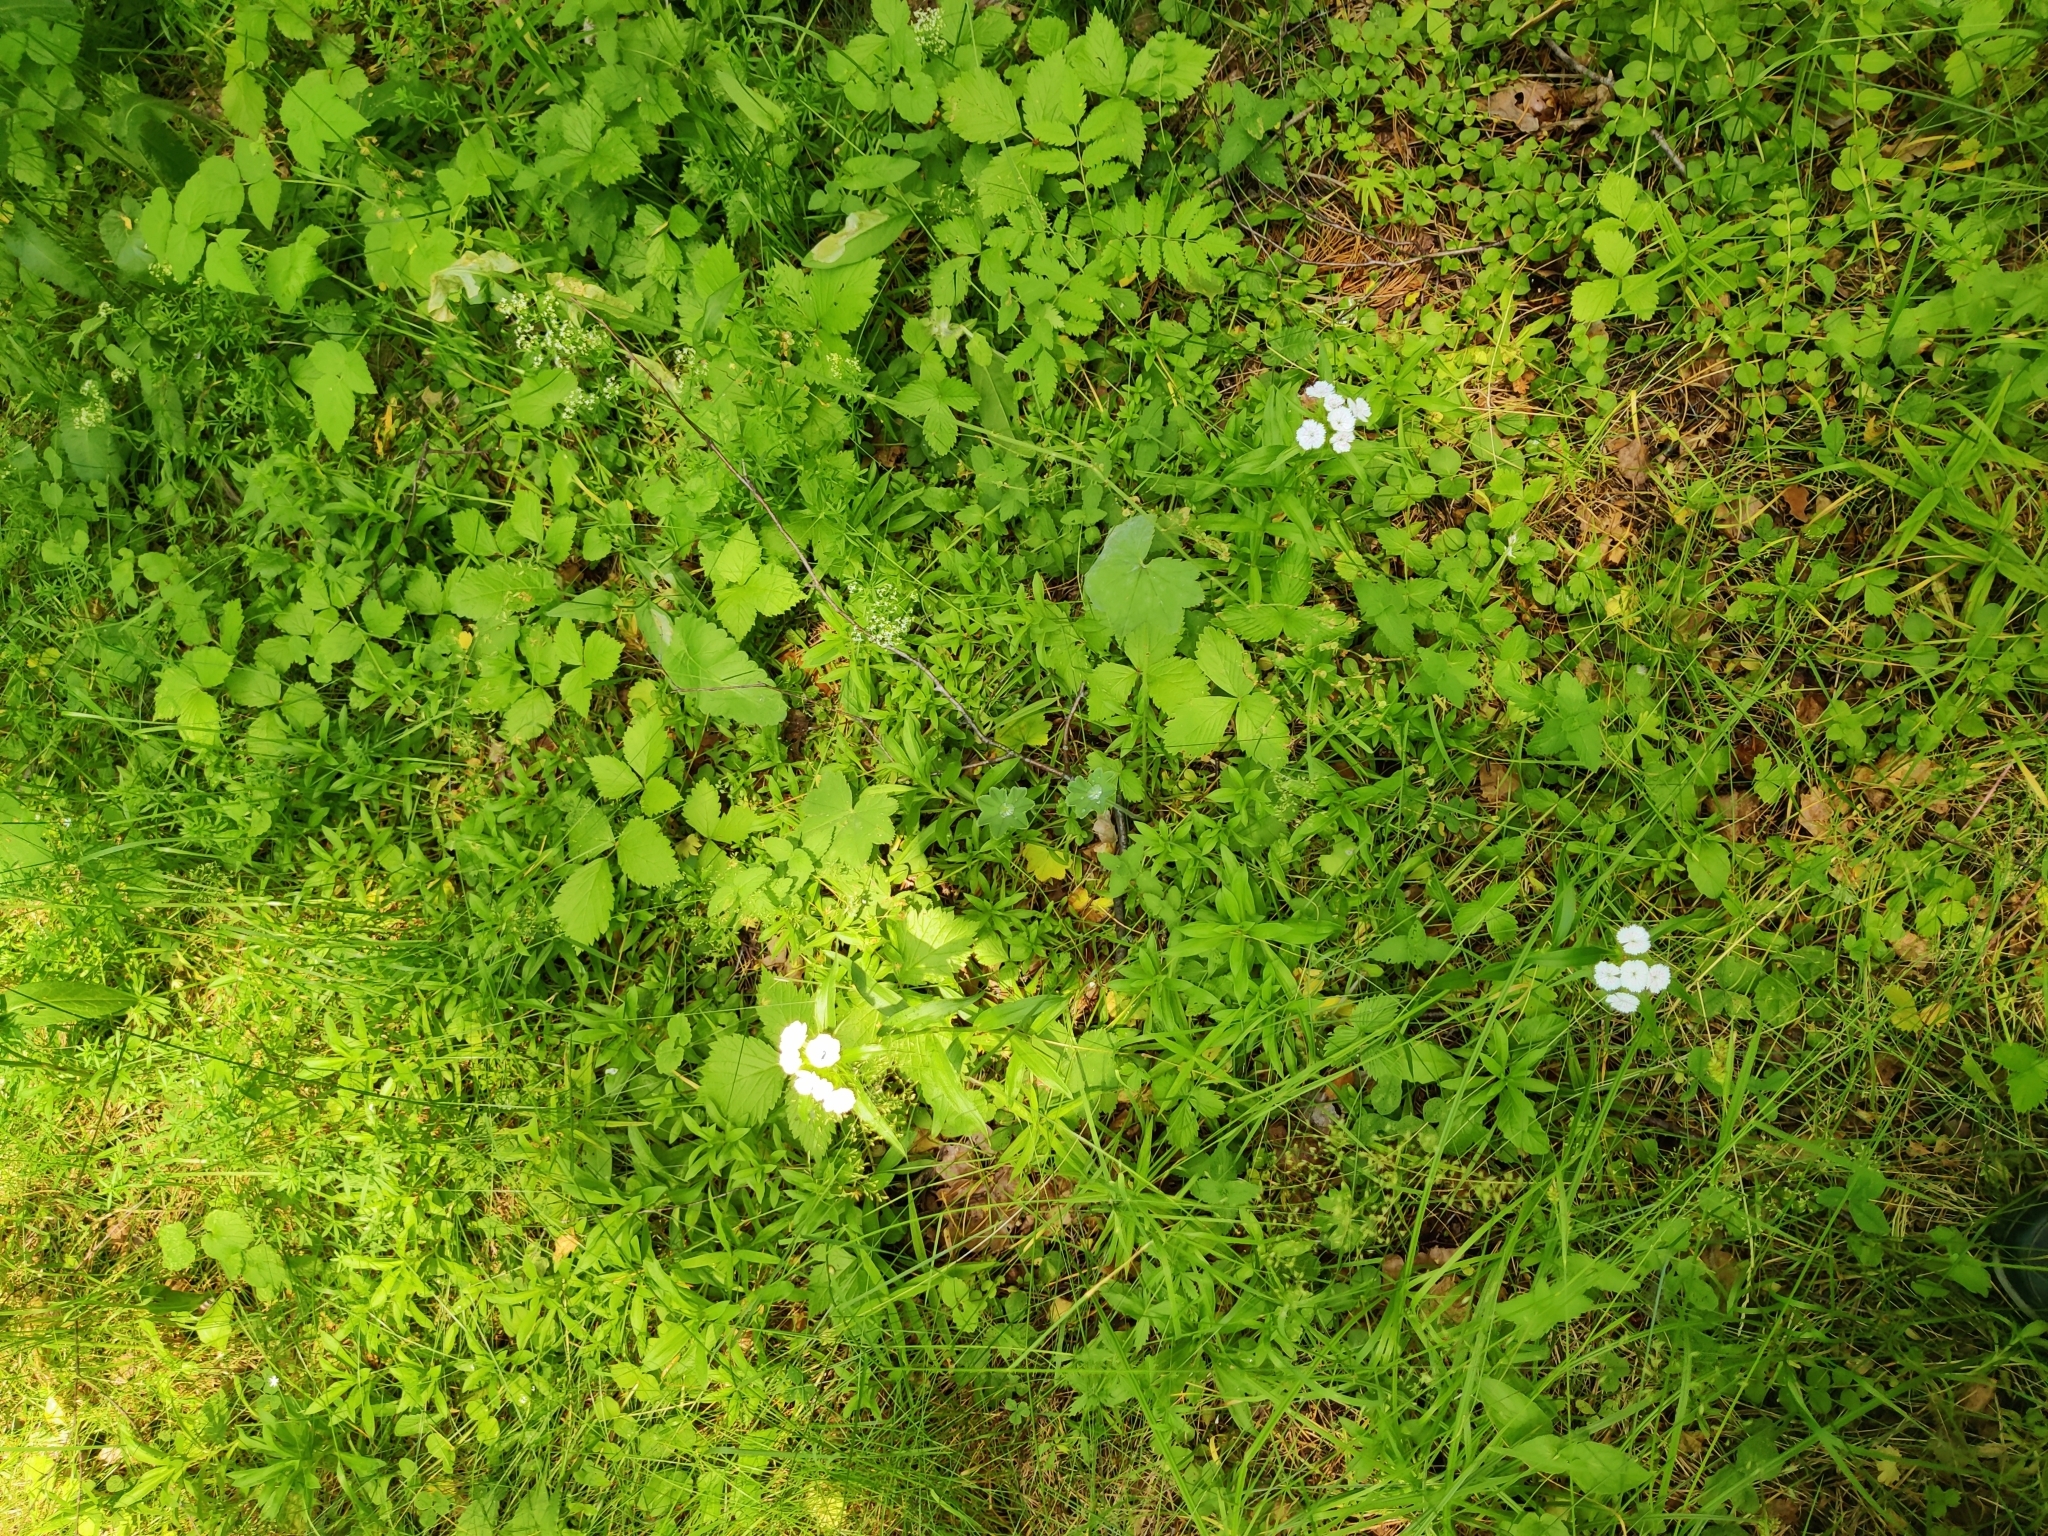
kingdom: Plantae
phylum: Tracheophyta
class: Magnoliopsida
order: Caryophyllales
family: Caryophyllaceae
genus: Dianthus
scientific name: Dianthus barbatus
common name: Sweet-william
